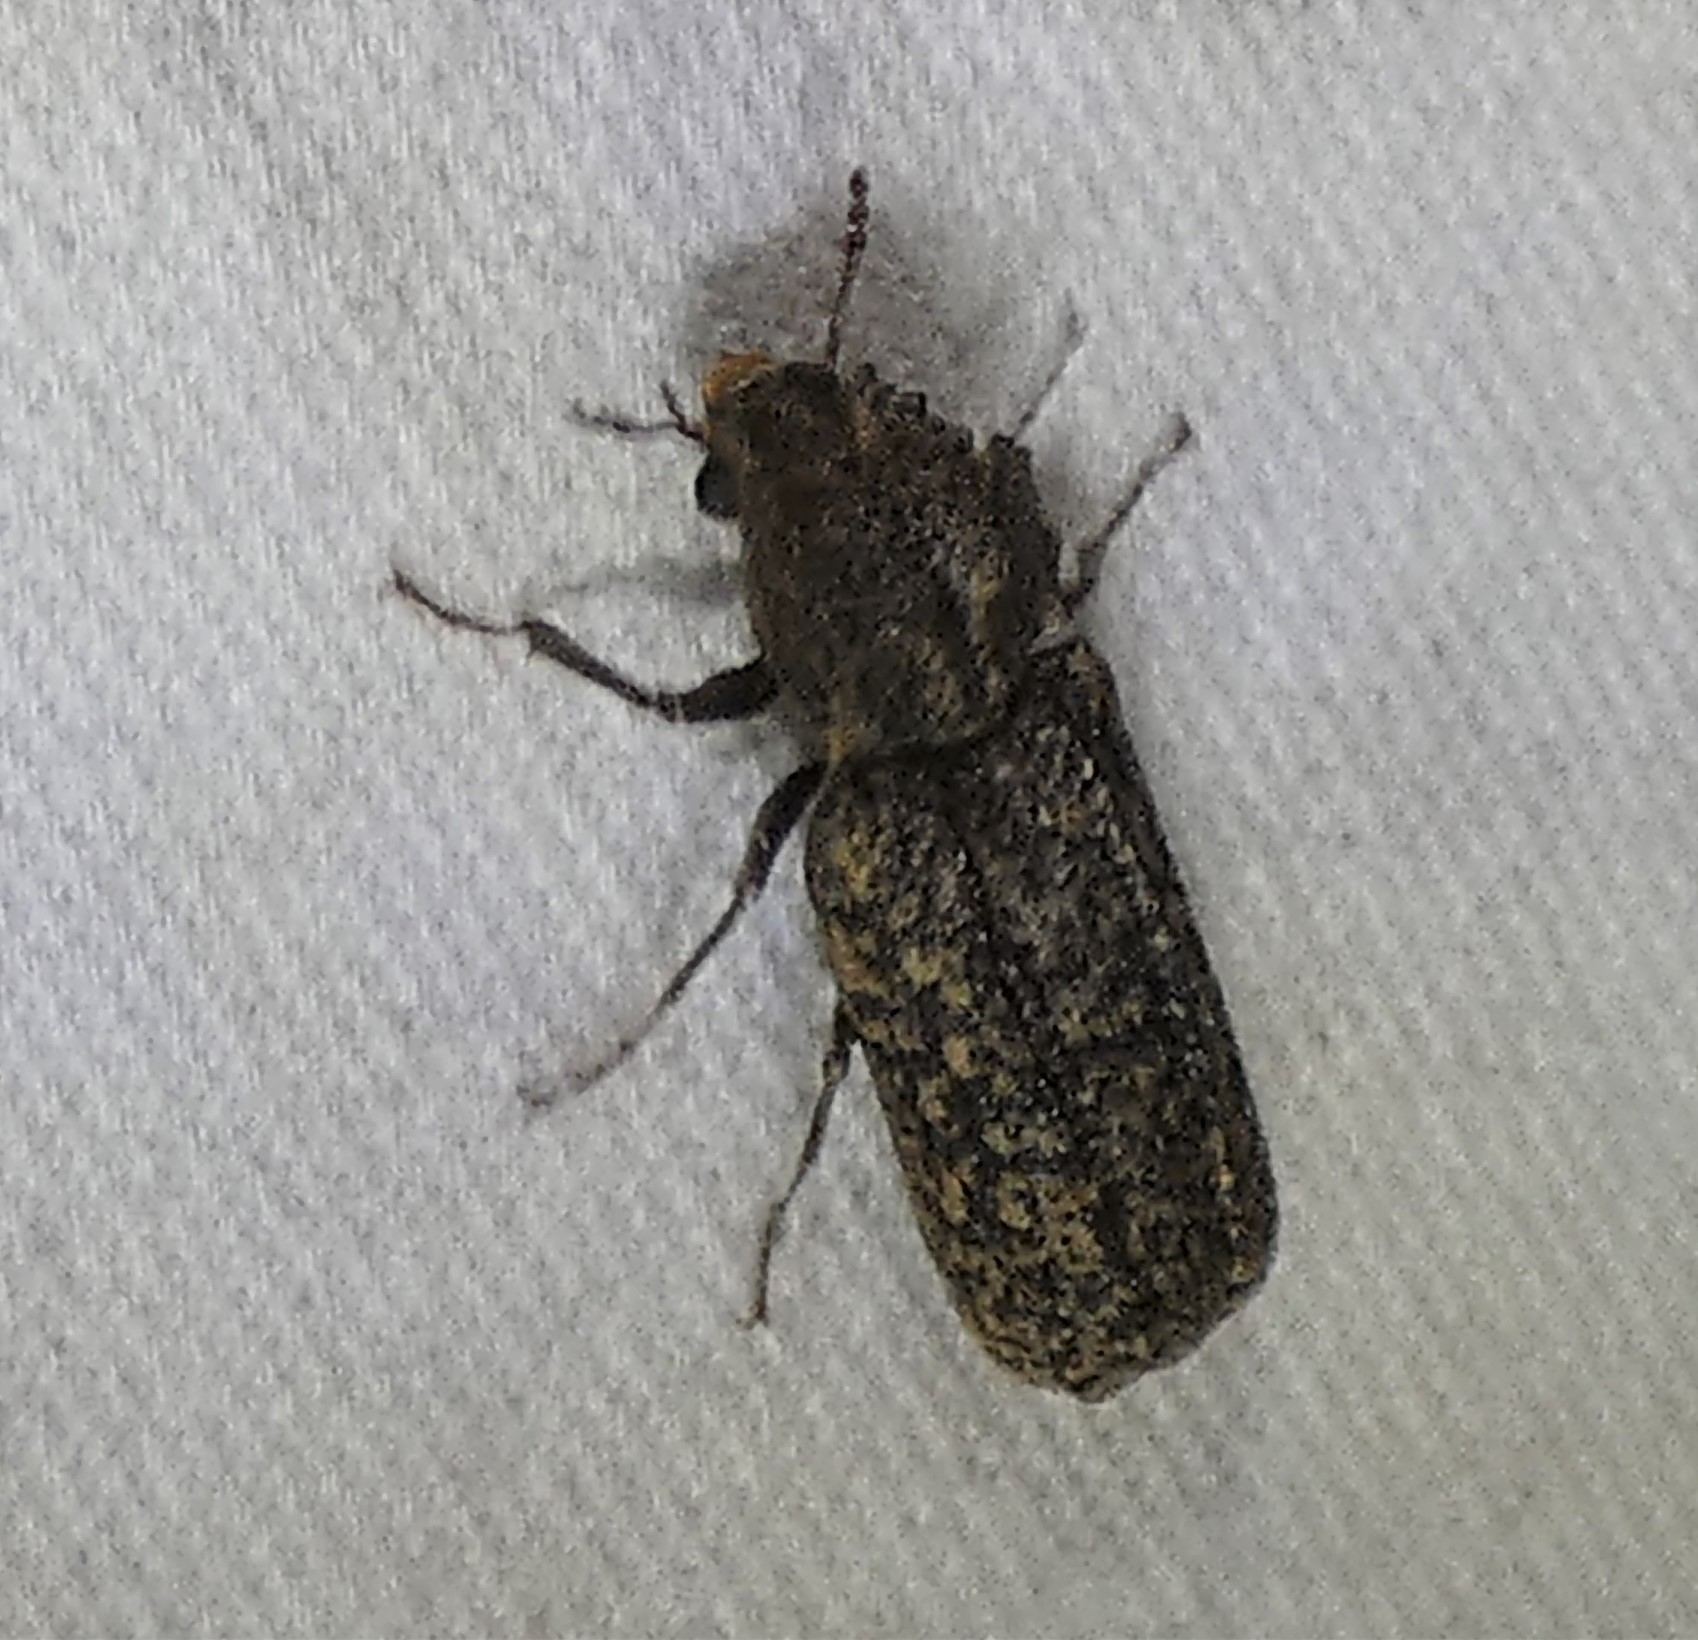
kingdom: Animalia
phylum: Arthropoda
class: Insecta
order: Coleoptera
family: Bostrichidae
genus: Lichenophanes
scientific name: Lichenophanes bicornis
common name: Two-horned powder-post beetle
